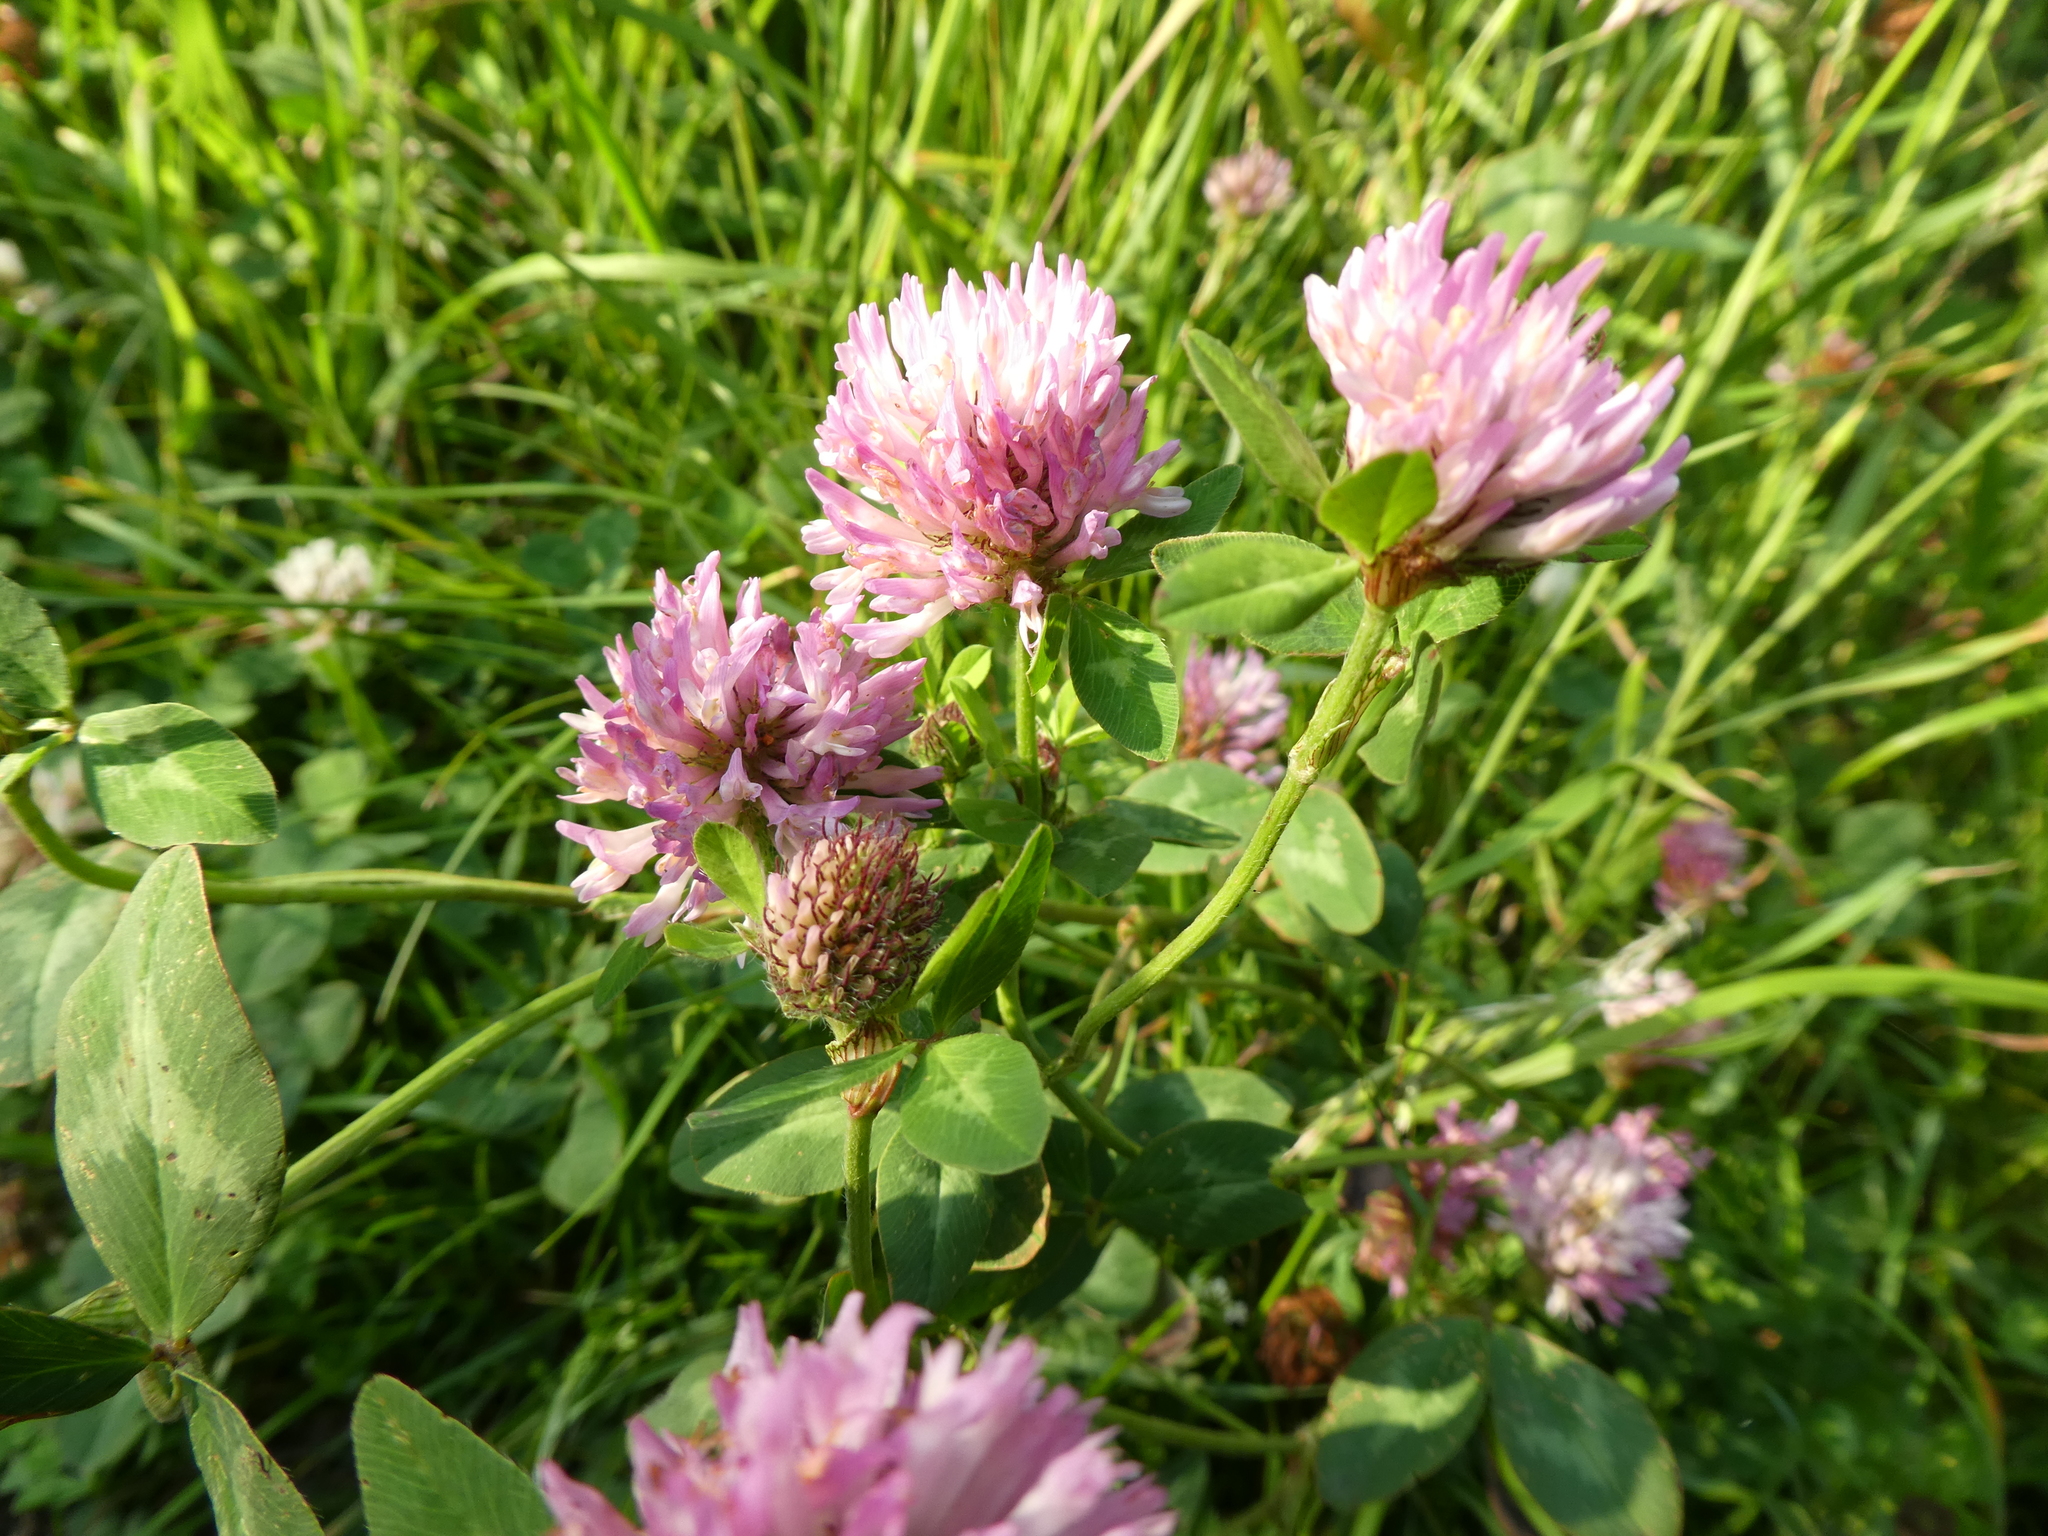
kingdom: Plantae
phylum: Tracheophyta
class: Magnoliopsida
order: Fabales
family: Fabaceae
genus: Trifolium
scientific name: Trifolium pratense
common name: Red clover
